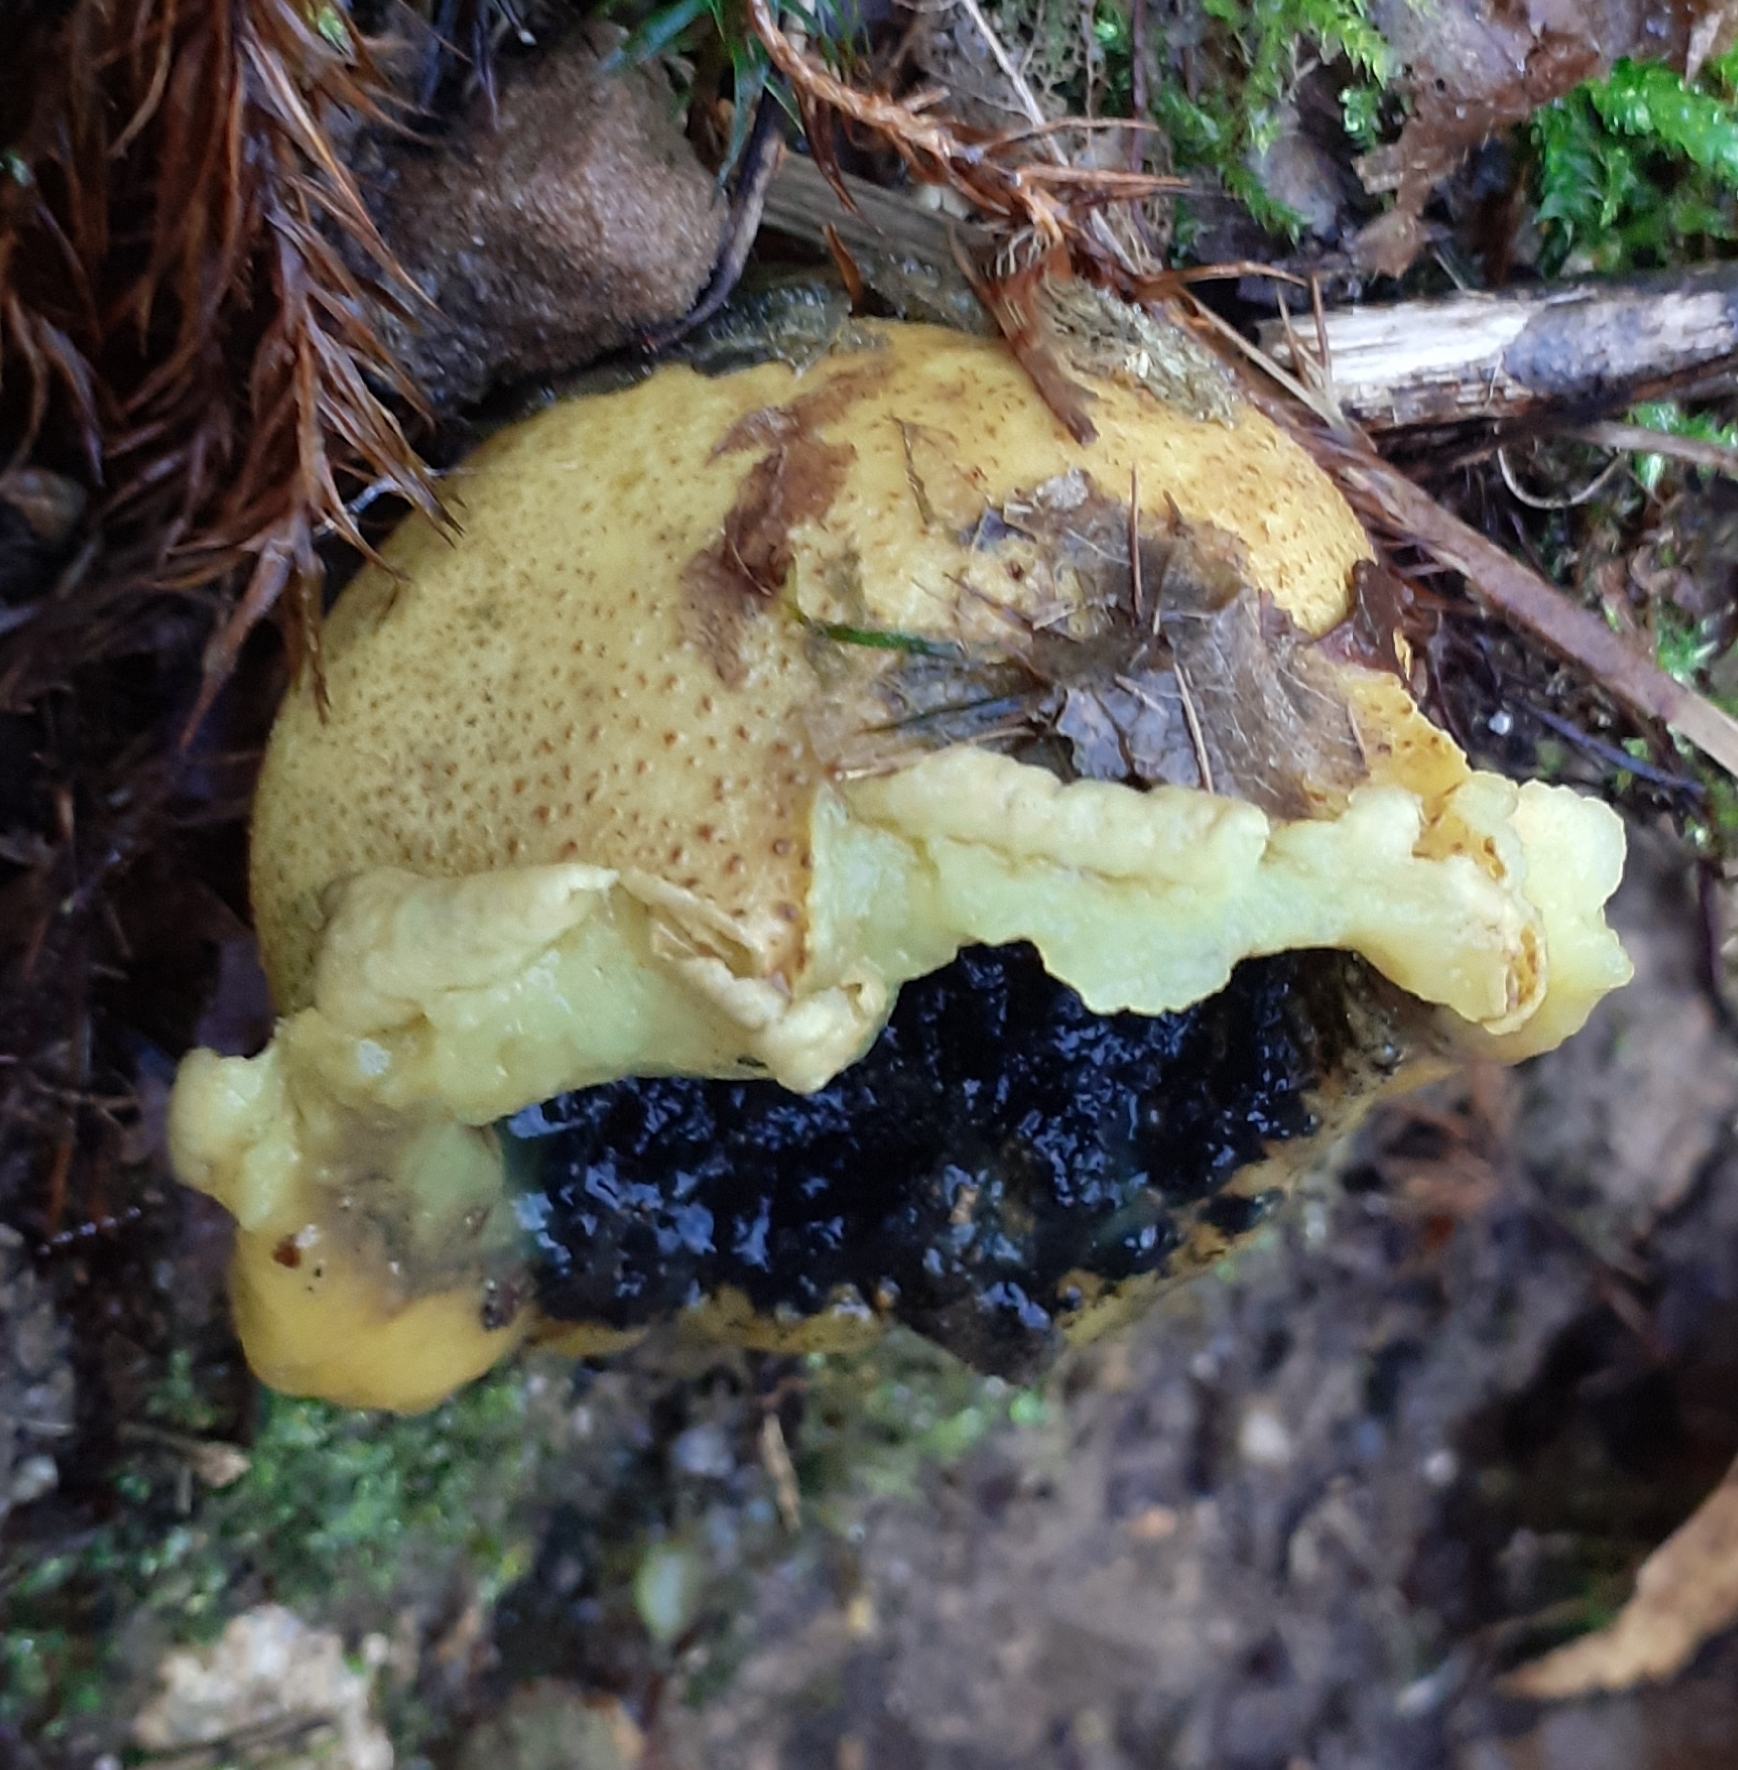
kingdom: Fungi
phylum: Basidiomycota
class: Agaricomycetes
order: Boletales
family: Sclerodermataceae
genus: Scleroderma
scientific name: Scleroderma citrinum
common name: Common earthball
